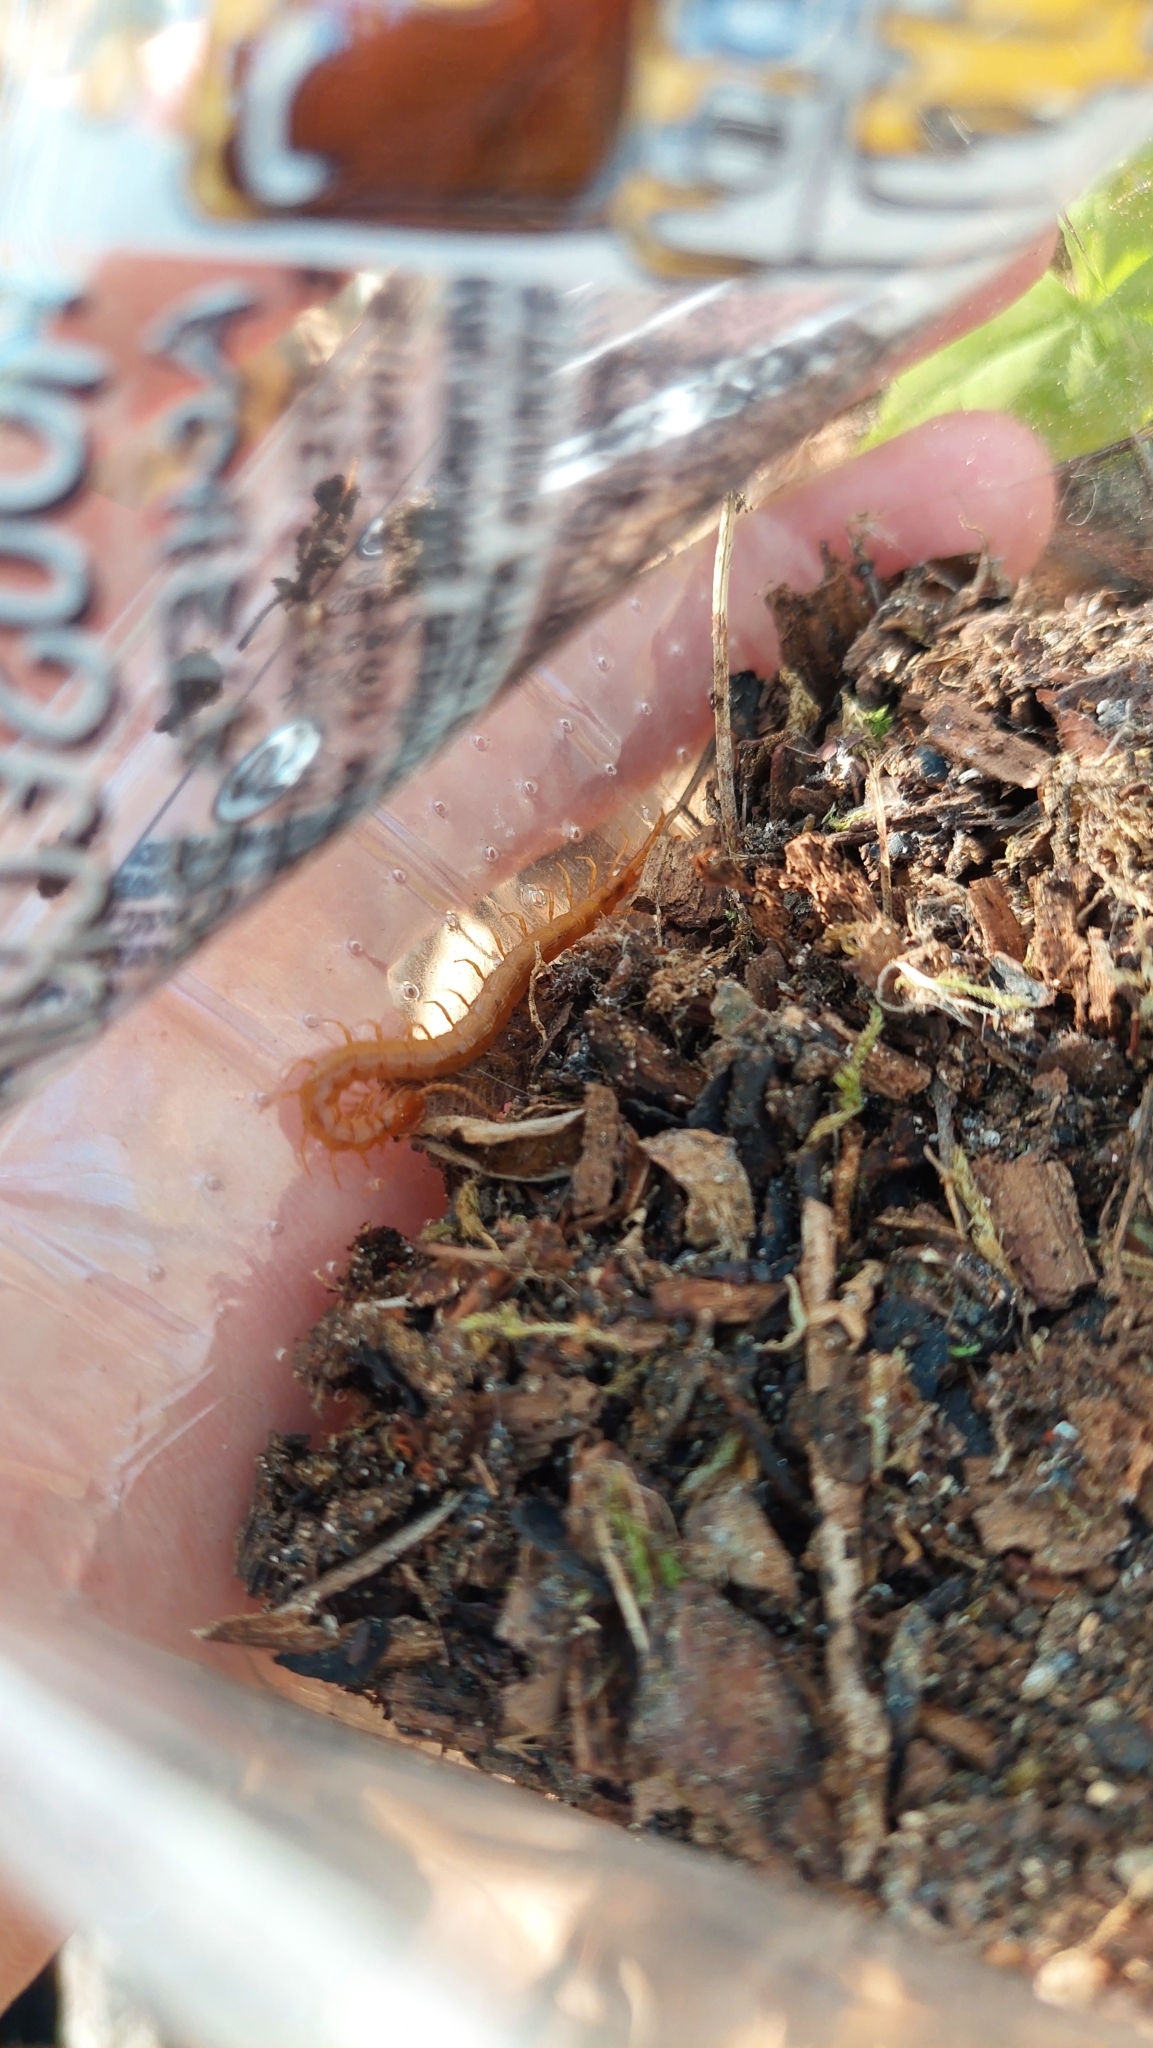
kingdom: Animalia
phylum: Arthropoda
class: Chilopoda
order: Scolopendromorpha
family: Cryptopidae
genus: Cryptops
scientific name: Cryptops anomalans
